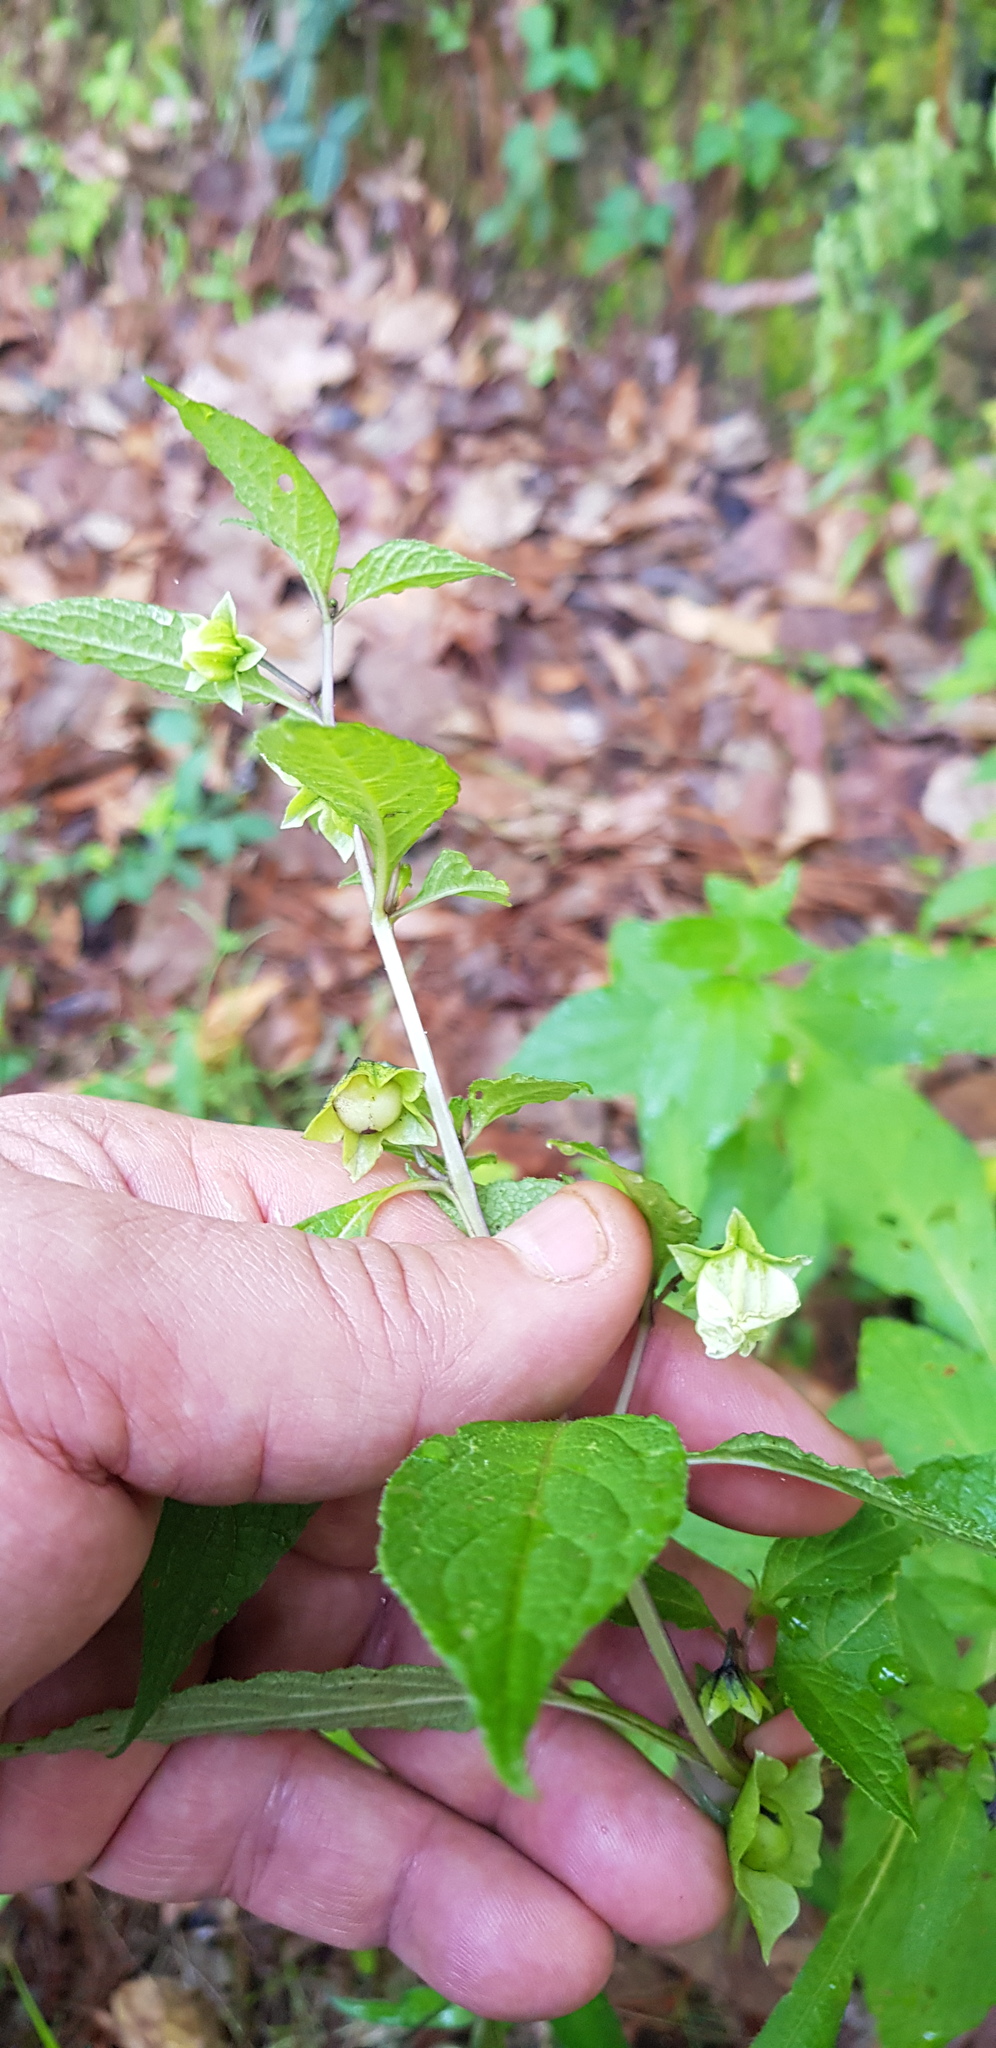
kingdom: Plantae
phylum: Tracheophyta
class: Magnoliopsida
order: Solanales
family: Solanaceae
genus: Jaltomata
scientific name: Jaltomata procumbens
